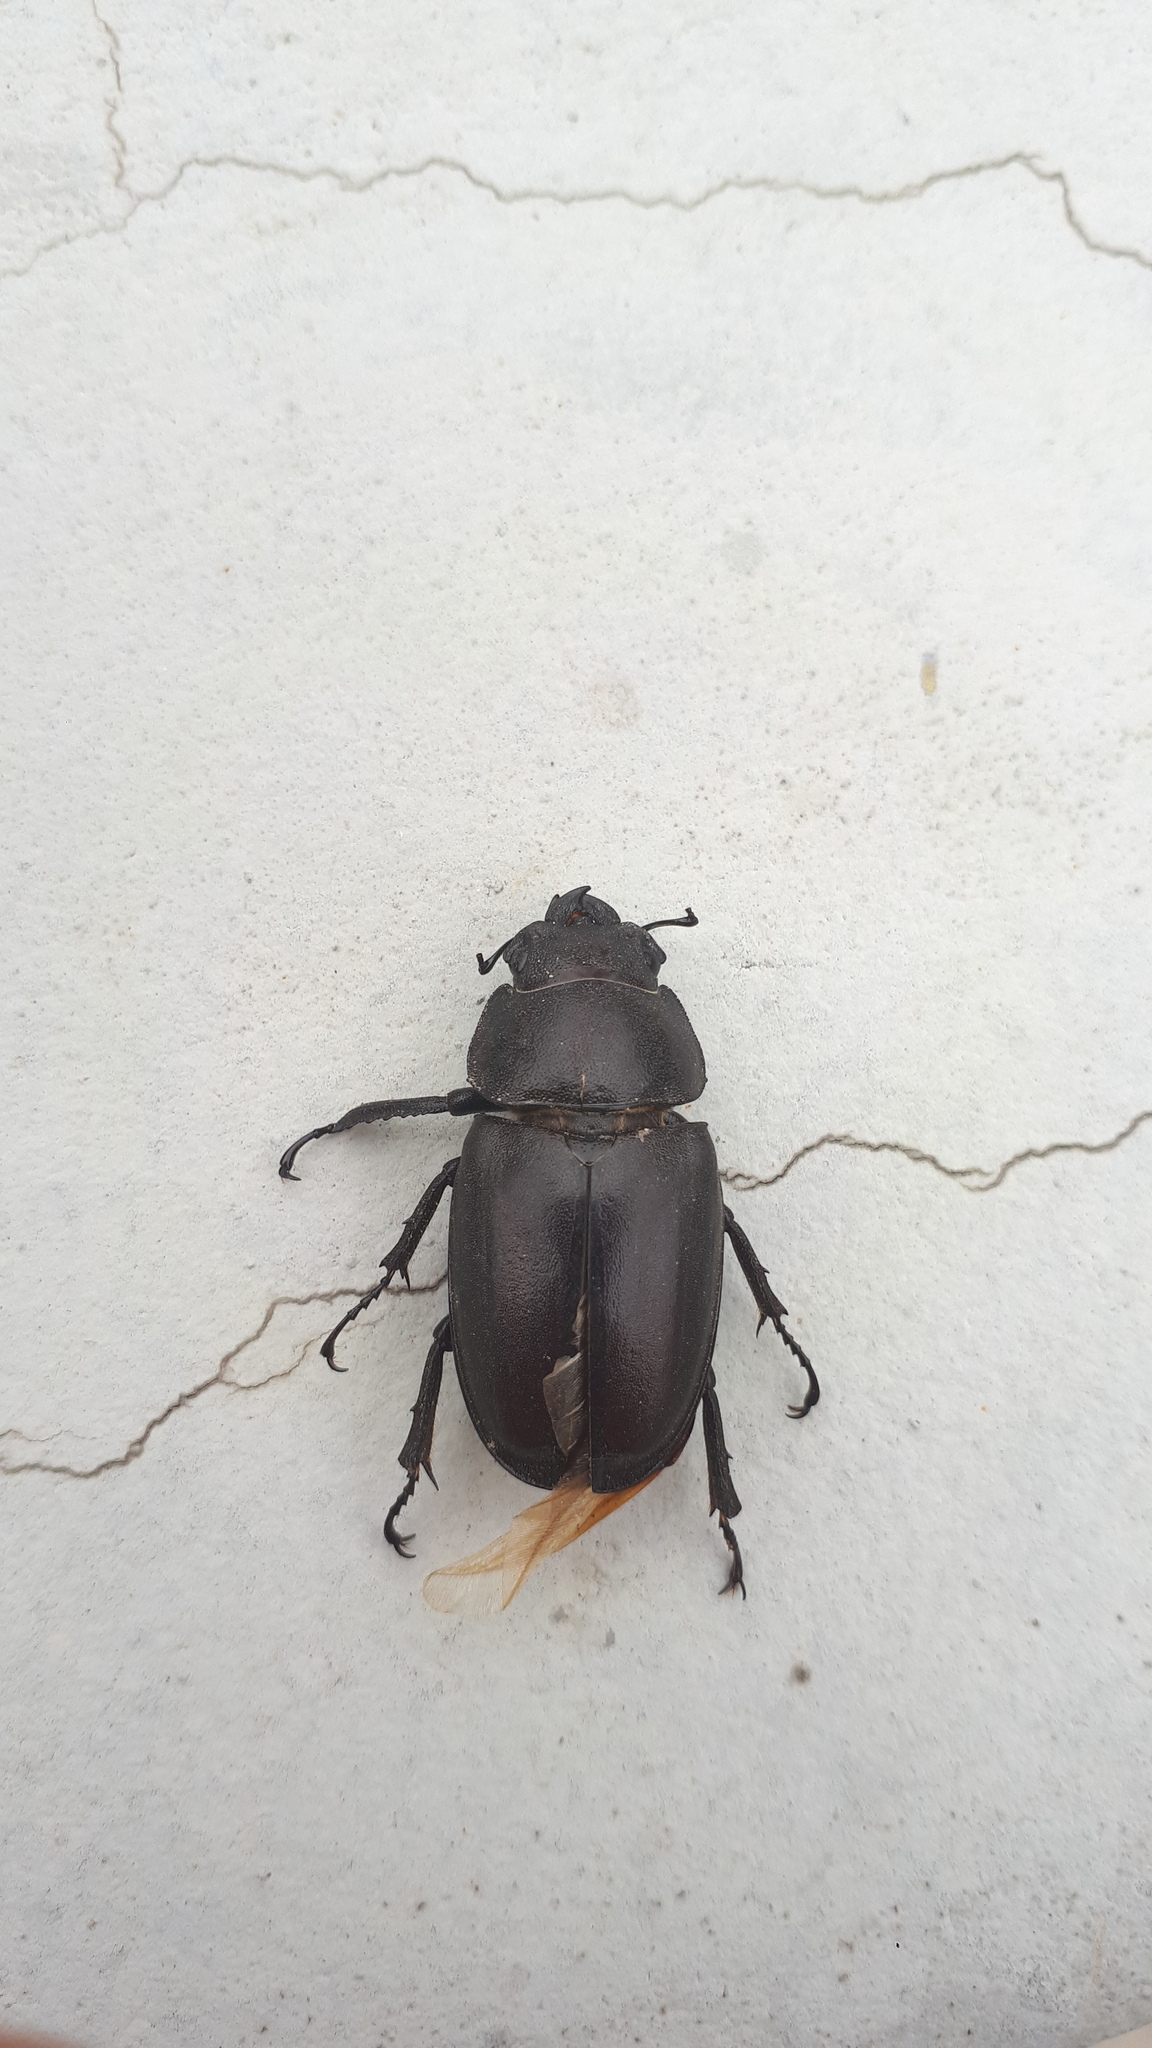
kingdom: Animalia
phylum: Arthropoda
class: Insecta
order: Coleoptera
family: Lucanidae
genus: Prosopocoilus
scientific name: Prosopocoilus inclinatus
